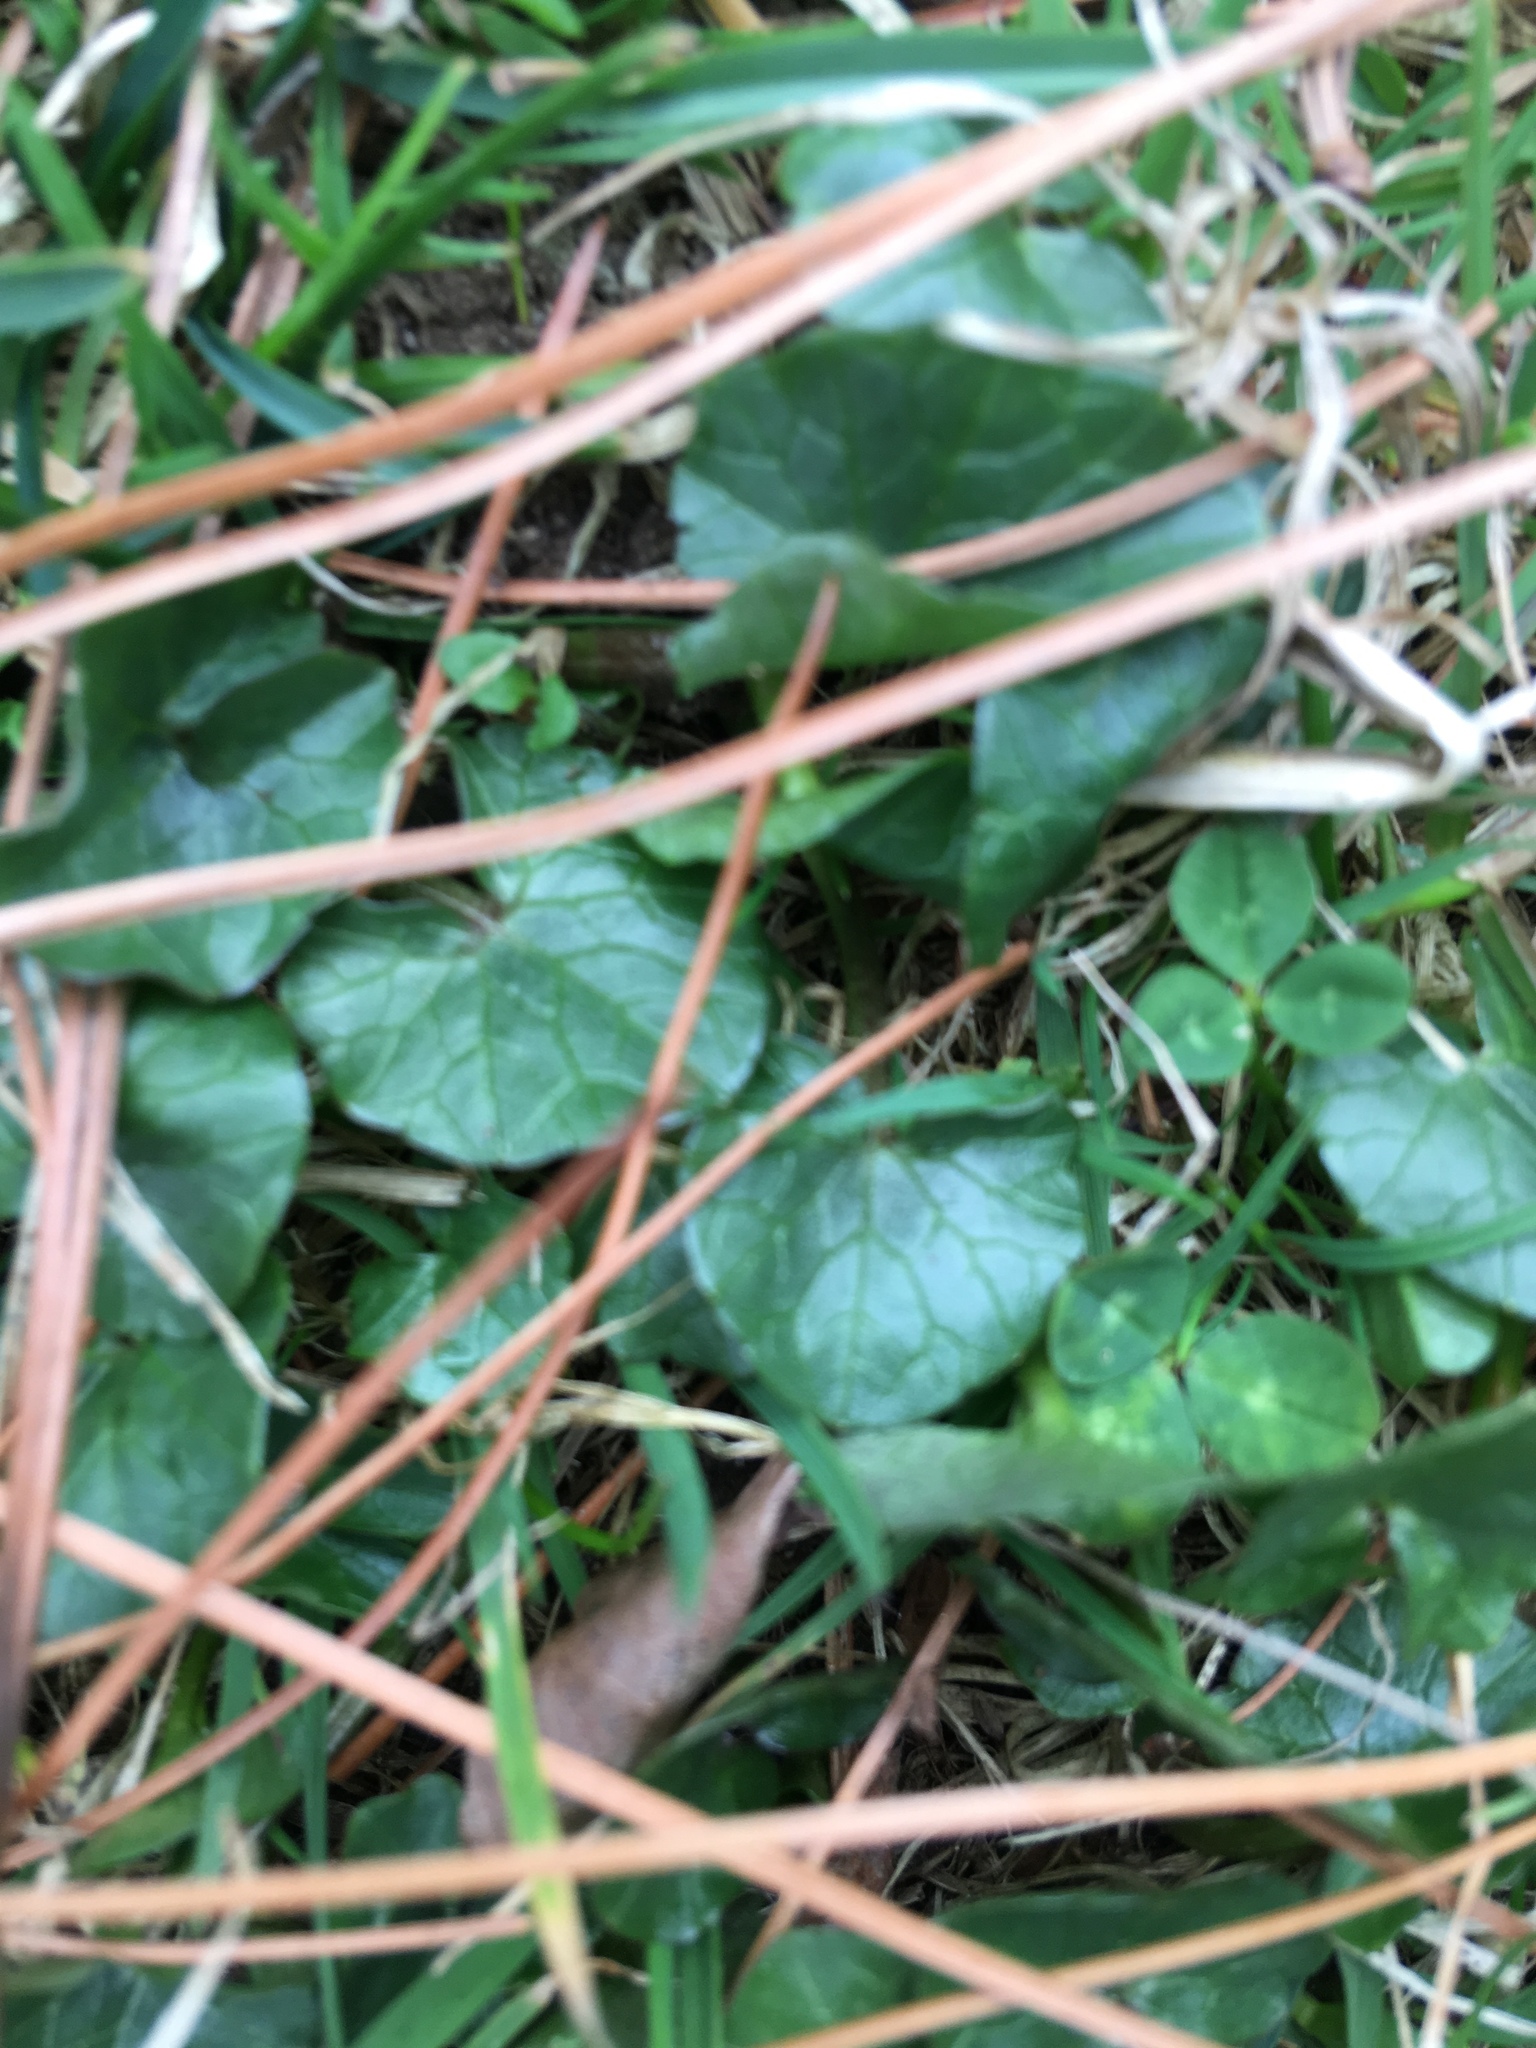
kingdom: Plantae
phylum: Tracheophyta
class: Magnoliopsida
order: Ranunculales
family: Ranunculaceae
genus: Ficaria
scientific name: Ficaria verna
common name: Lesser celandine
